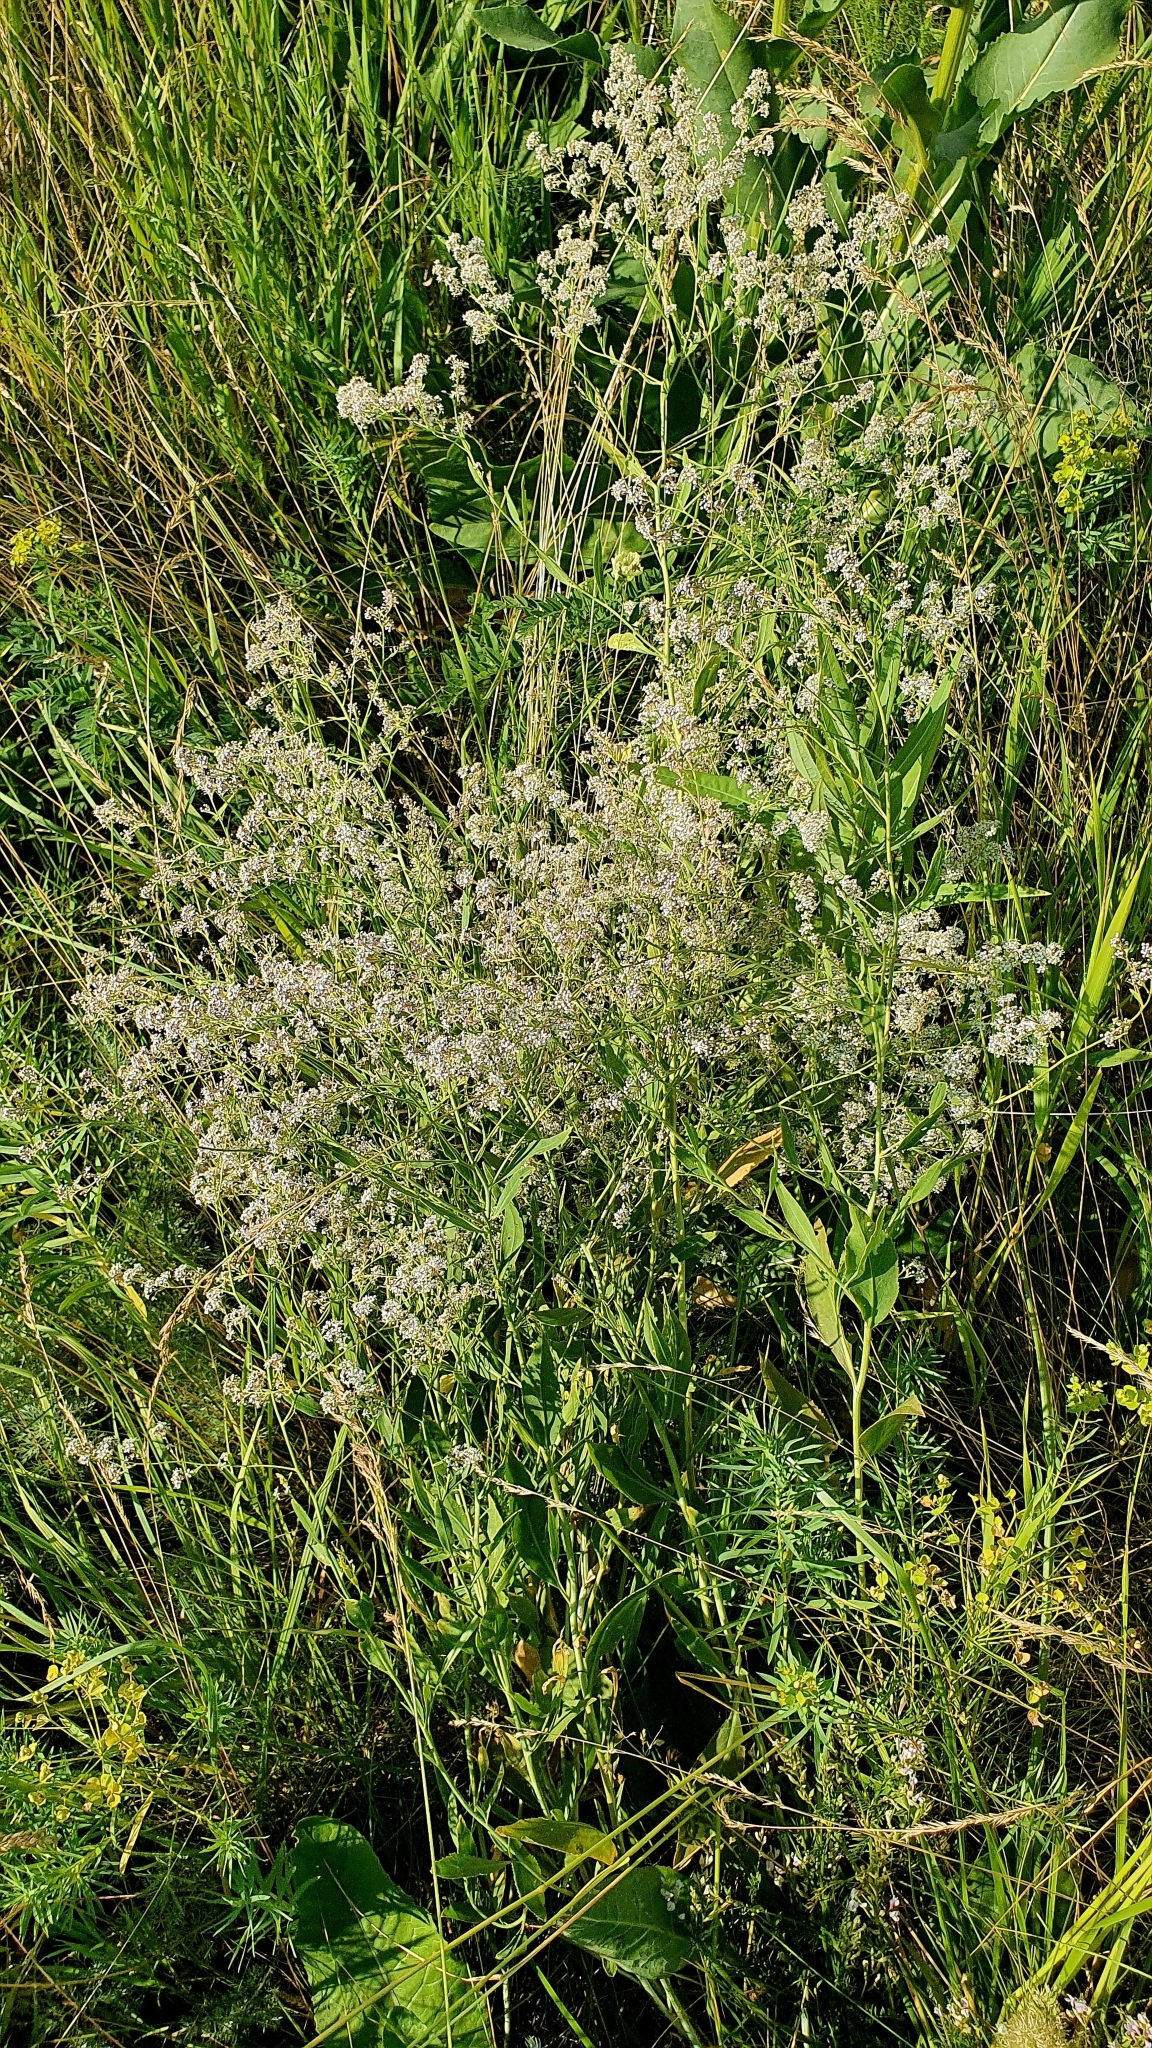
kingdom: Plantae
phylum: Tracheophyta
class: Magnoliopsida
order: Brassicales
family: Brassicaceae
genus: Lepidium
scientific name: Lepidium latifolium
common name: Dittander
